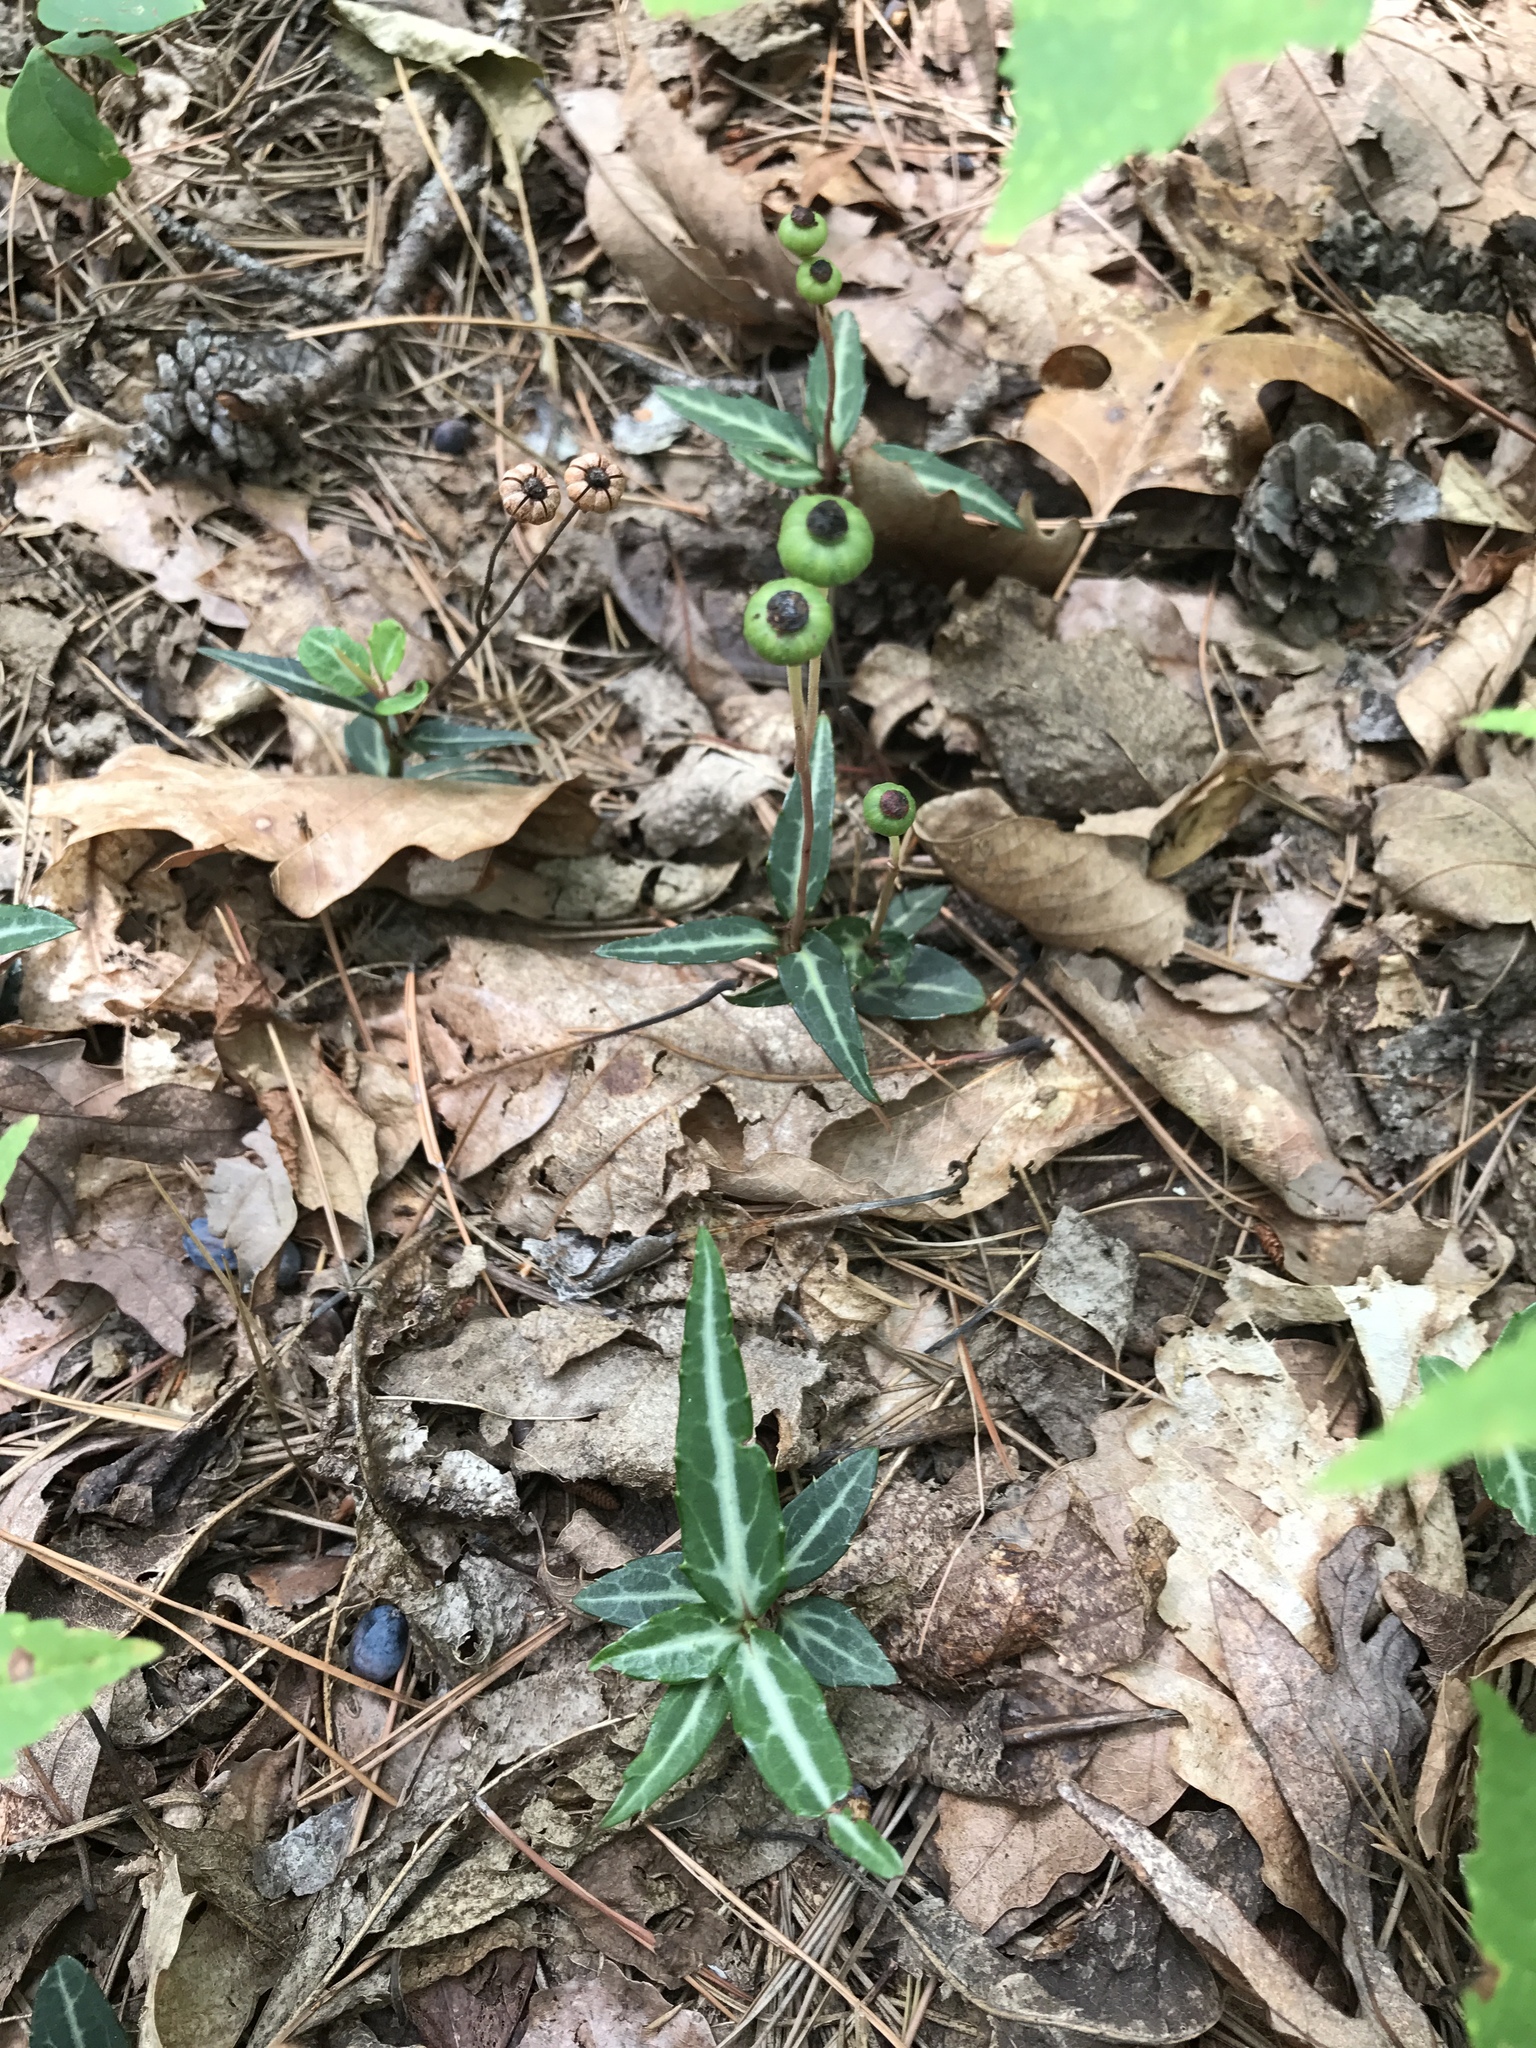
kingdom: Plantae
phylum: Tracheophyta
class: Magnoliopsida
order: Ericales
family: Ericaceae
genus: Chimaphila
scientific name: Chimaphila maculata
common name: Spotted pipsissewa
